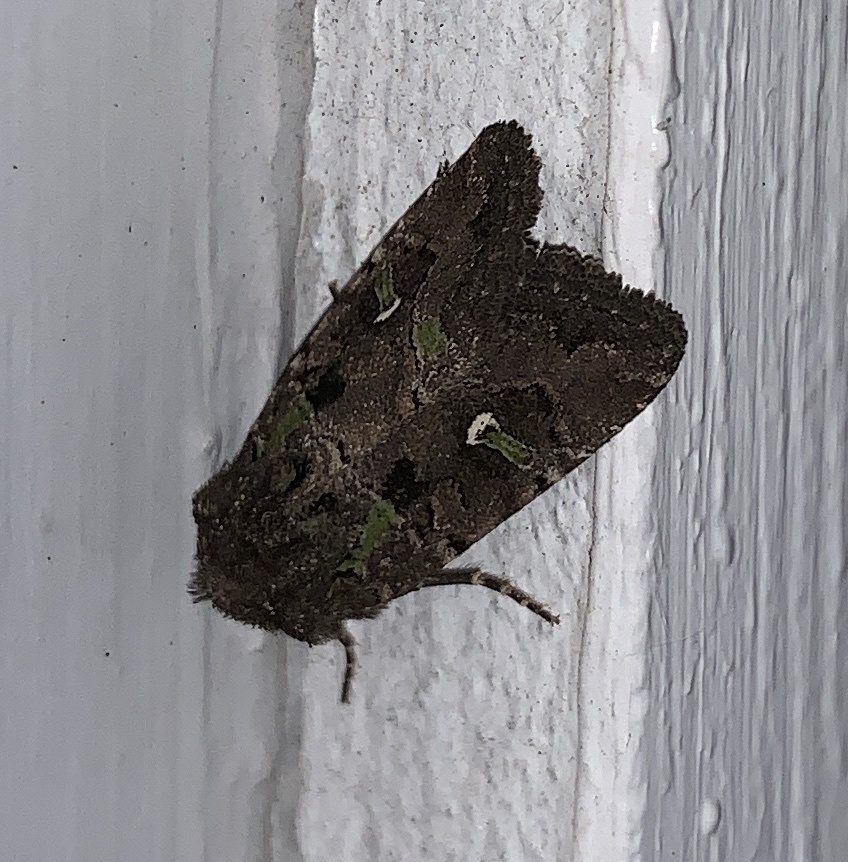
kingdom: Animalia
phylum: Arthropoda
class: Insecta
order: Lepidoptera
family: Noctuidae
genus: Lacinipolia
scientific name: Lacinipolia renigera
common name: Kidney-spotted minor
